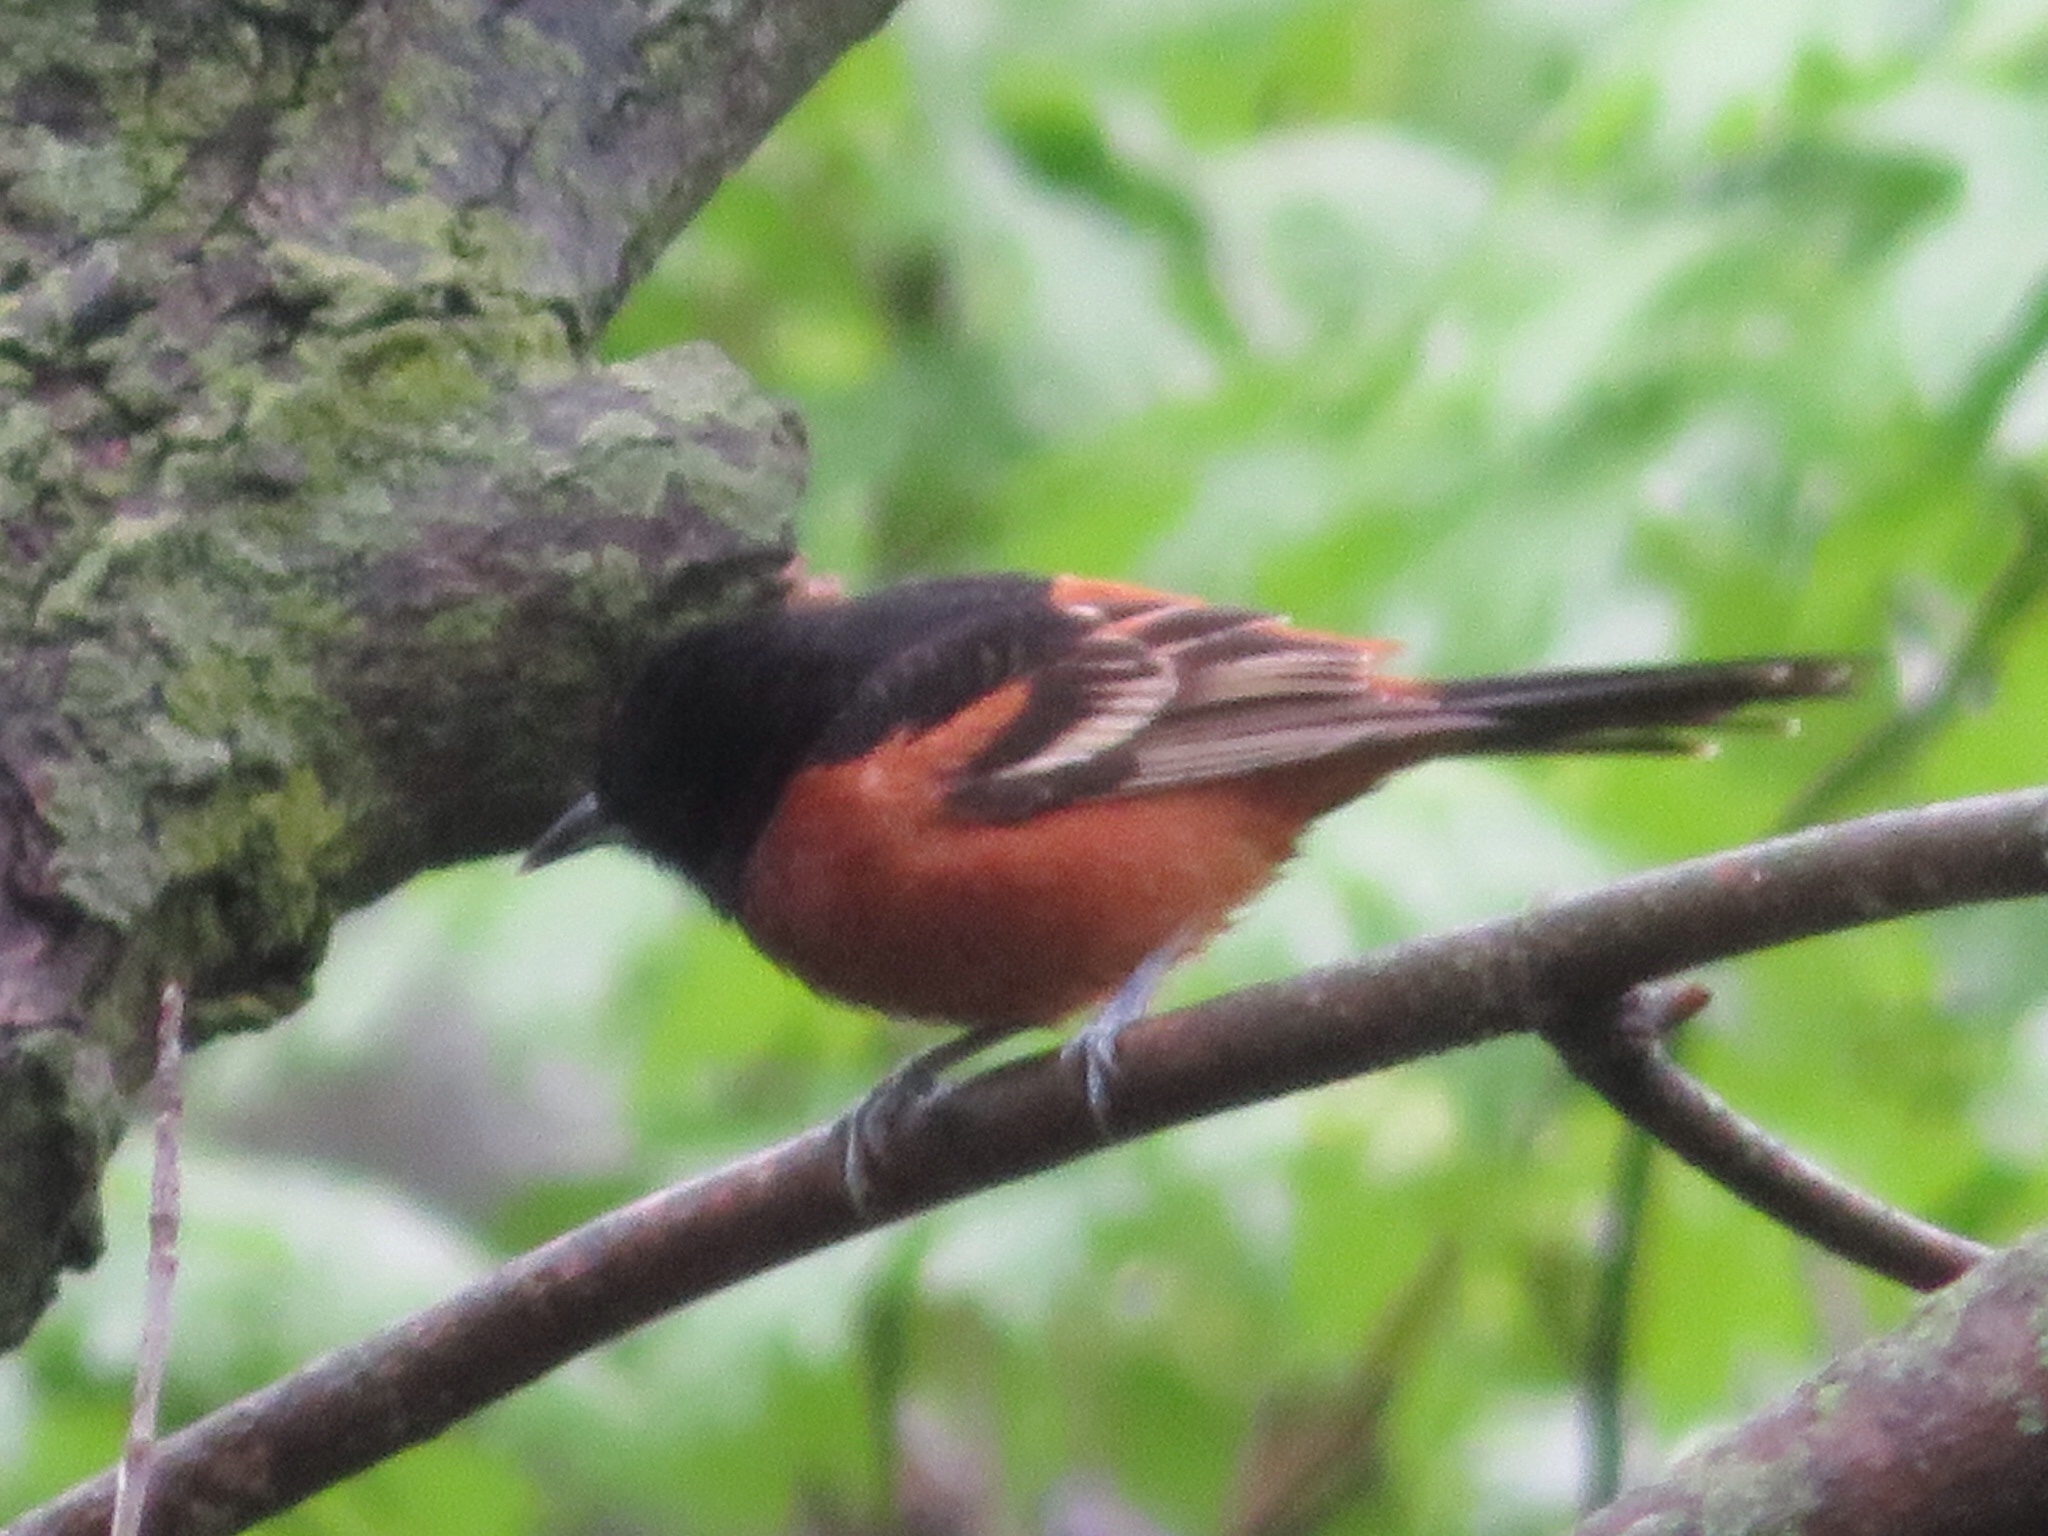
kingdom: Animalia
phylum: Chordata
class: Aves
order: Passeriformes
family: Icteridae
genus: Icterus
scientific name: Icterus spurius
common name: Orchard oriole
